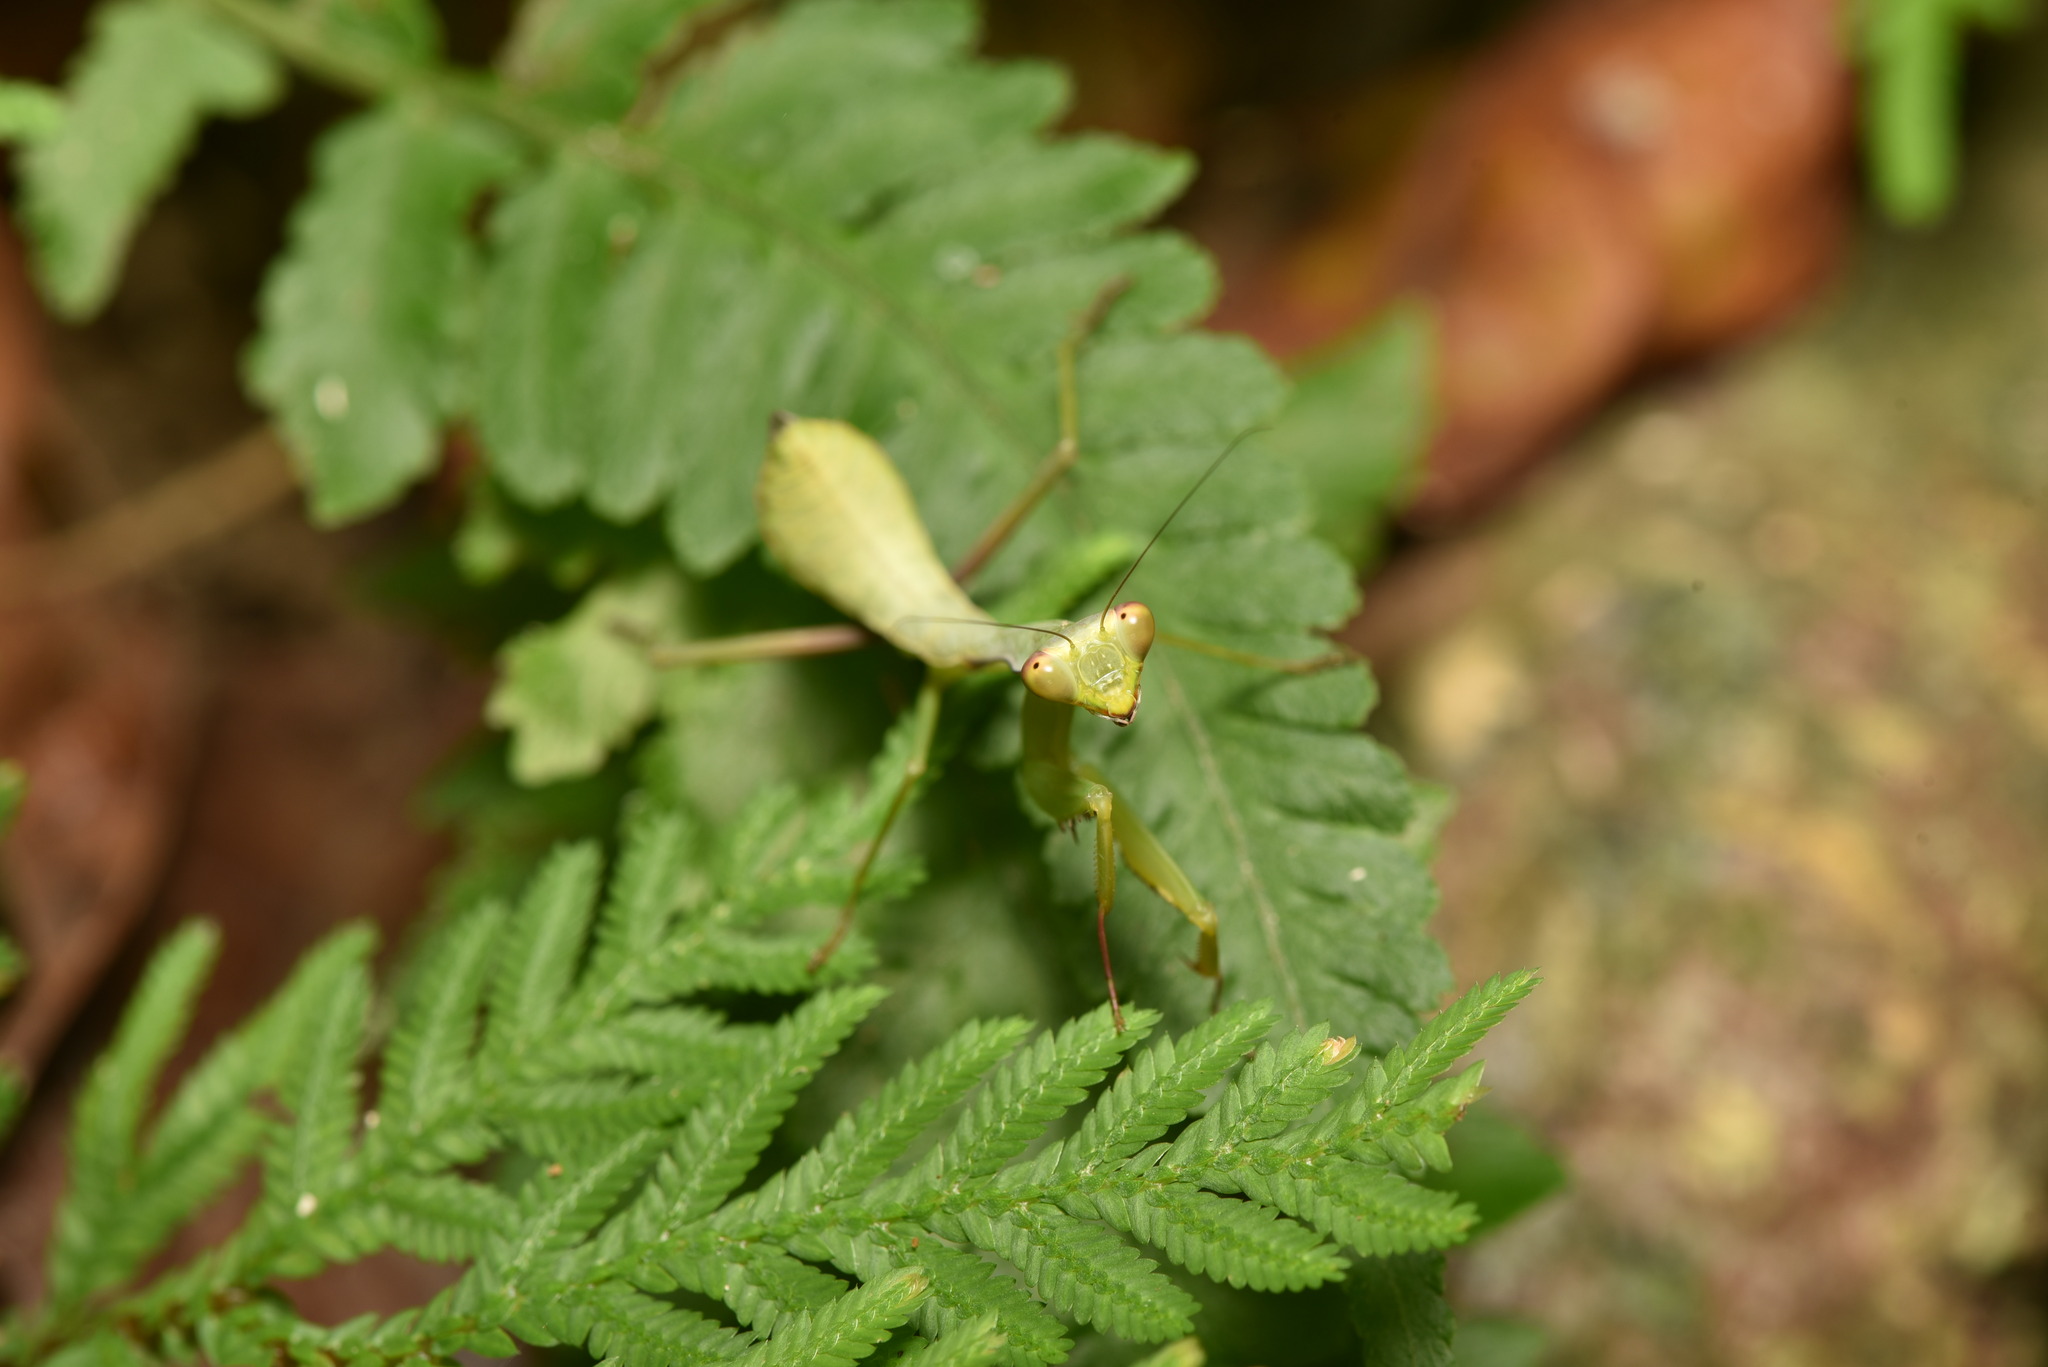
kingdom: Animalia
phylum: Arthropoda
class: Insecta
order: Mantodea
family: Mantidae
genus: Titanodula
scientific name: Titanodula formosana
